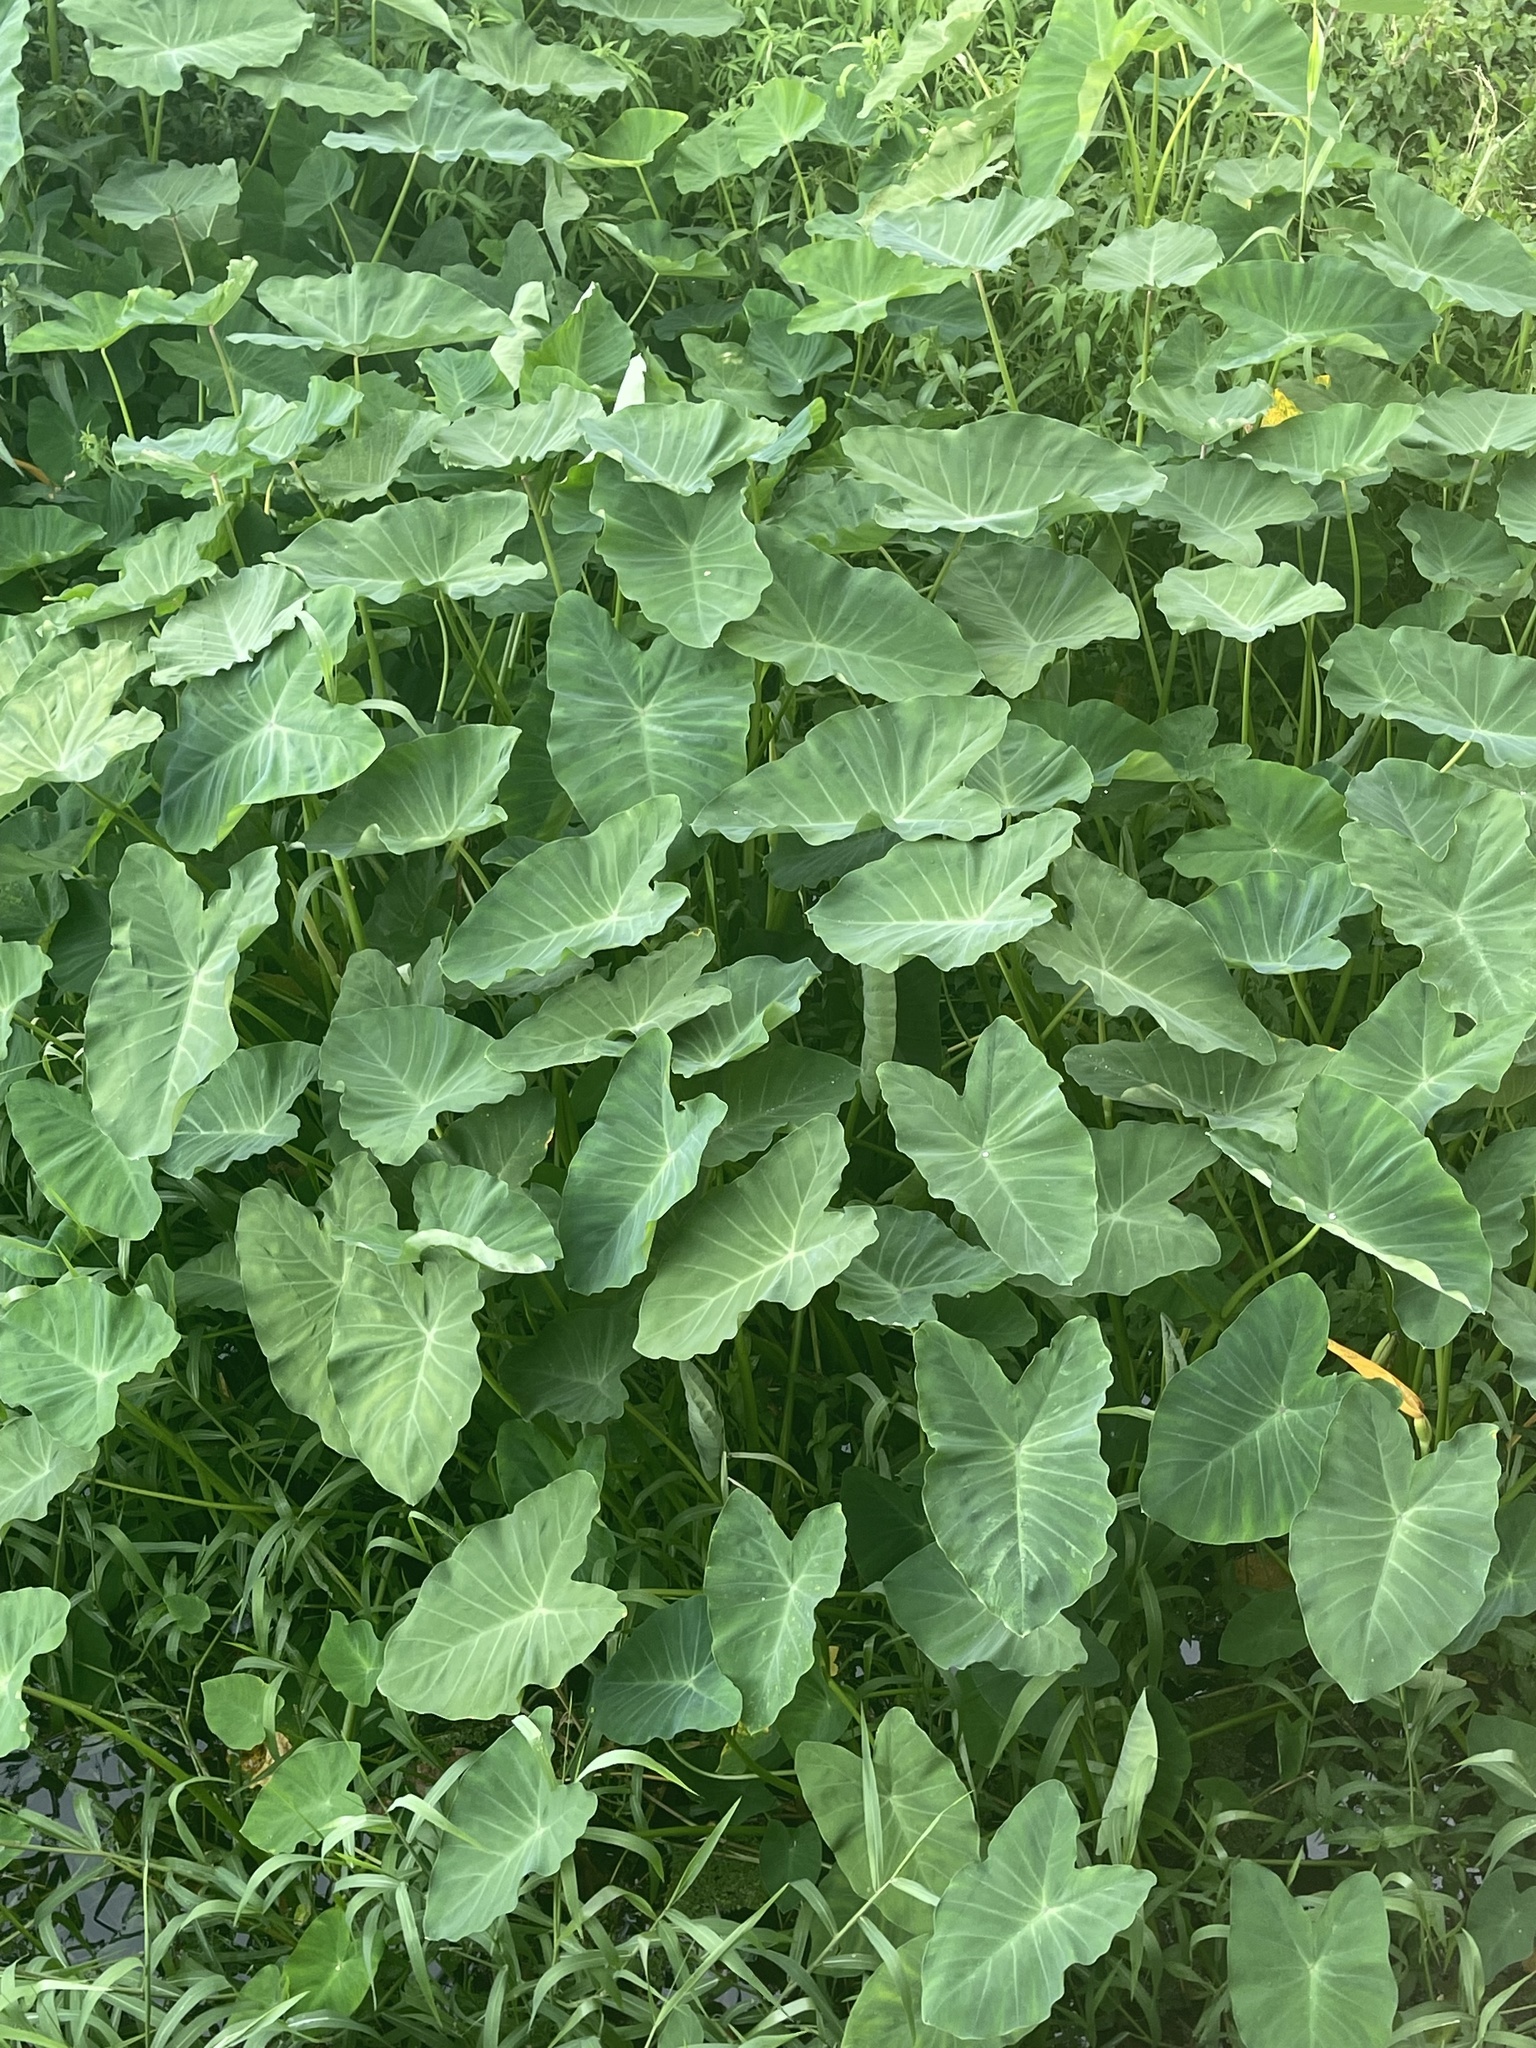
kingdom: Plantae
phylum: Tracheophyta
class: Liliopsida
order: Alismatales
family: Araceae
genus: Colocasia
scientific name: Colocasia esculenta
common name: Taro
